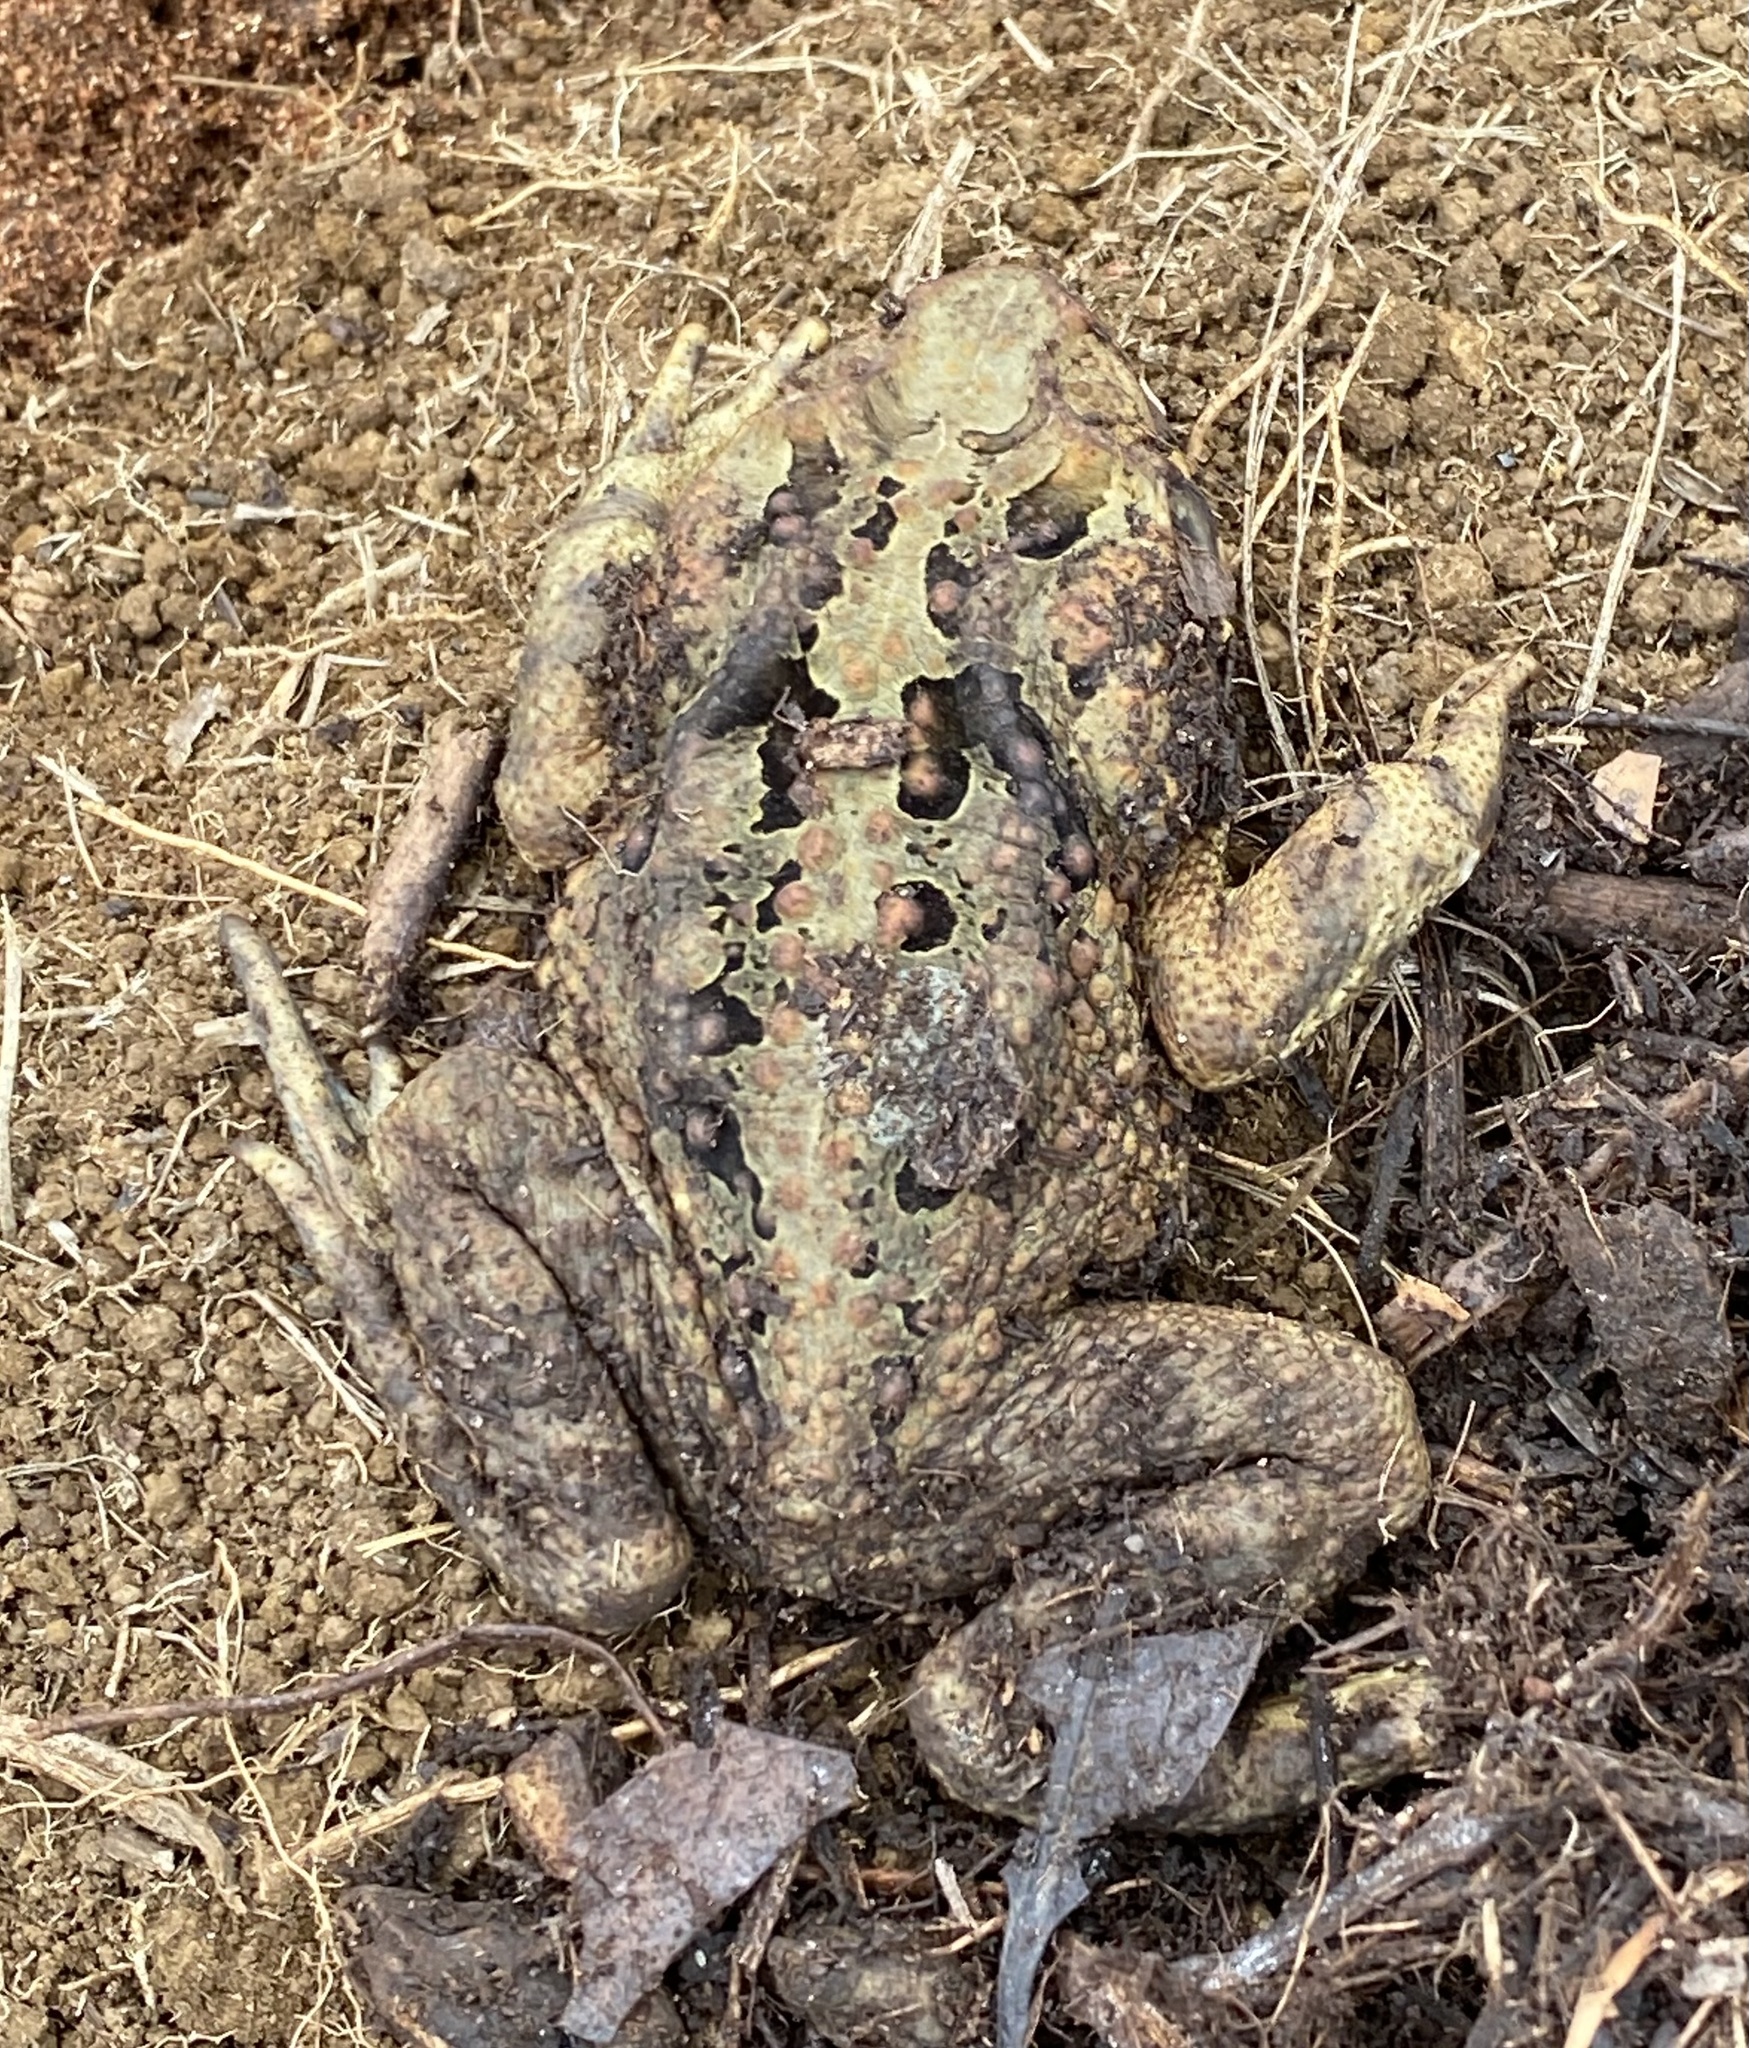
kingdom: Animalia
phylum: Chordata
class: Amphibia
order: Anura
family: Bufonidae
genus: Rhinella
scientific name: Rhinella marina
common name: Cane toad
